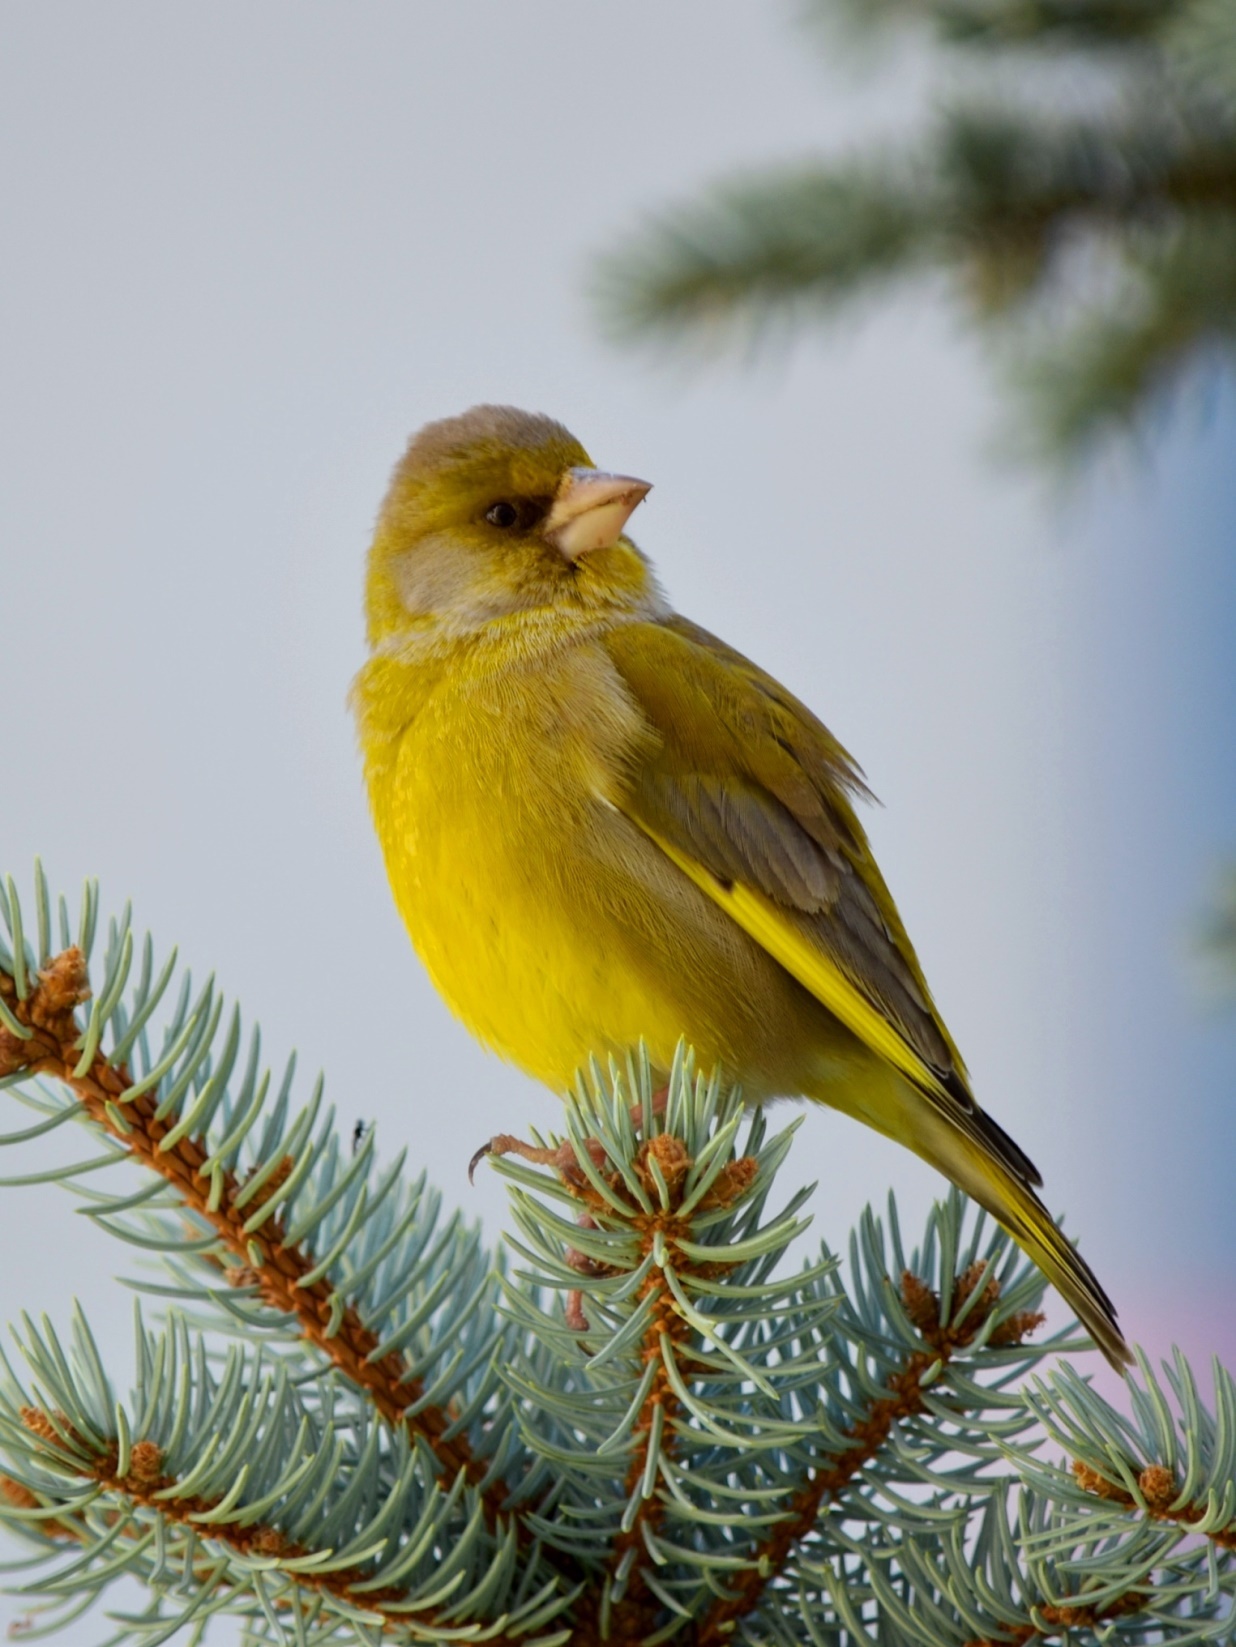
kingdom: Plantae
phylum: Tracheophyta
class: Liliopsida
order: Poales
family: Poaceae
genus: Chloris
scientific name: Chloris chloris
